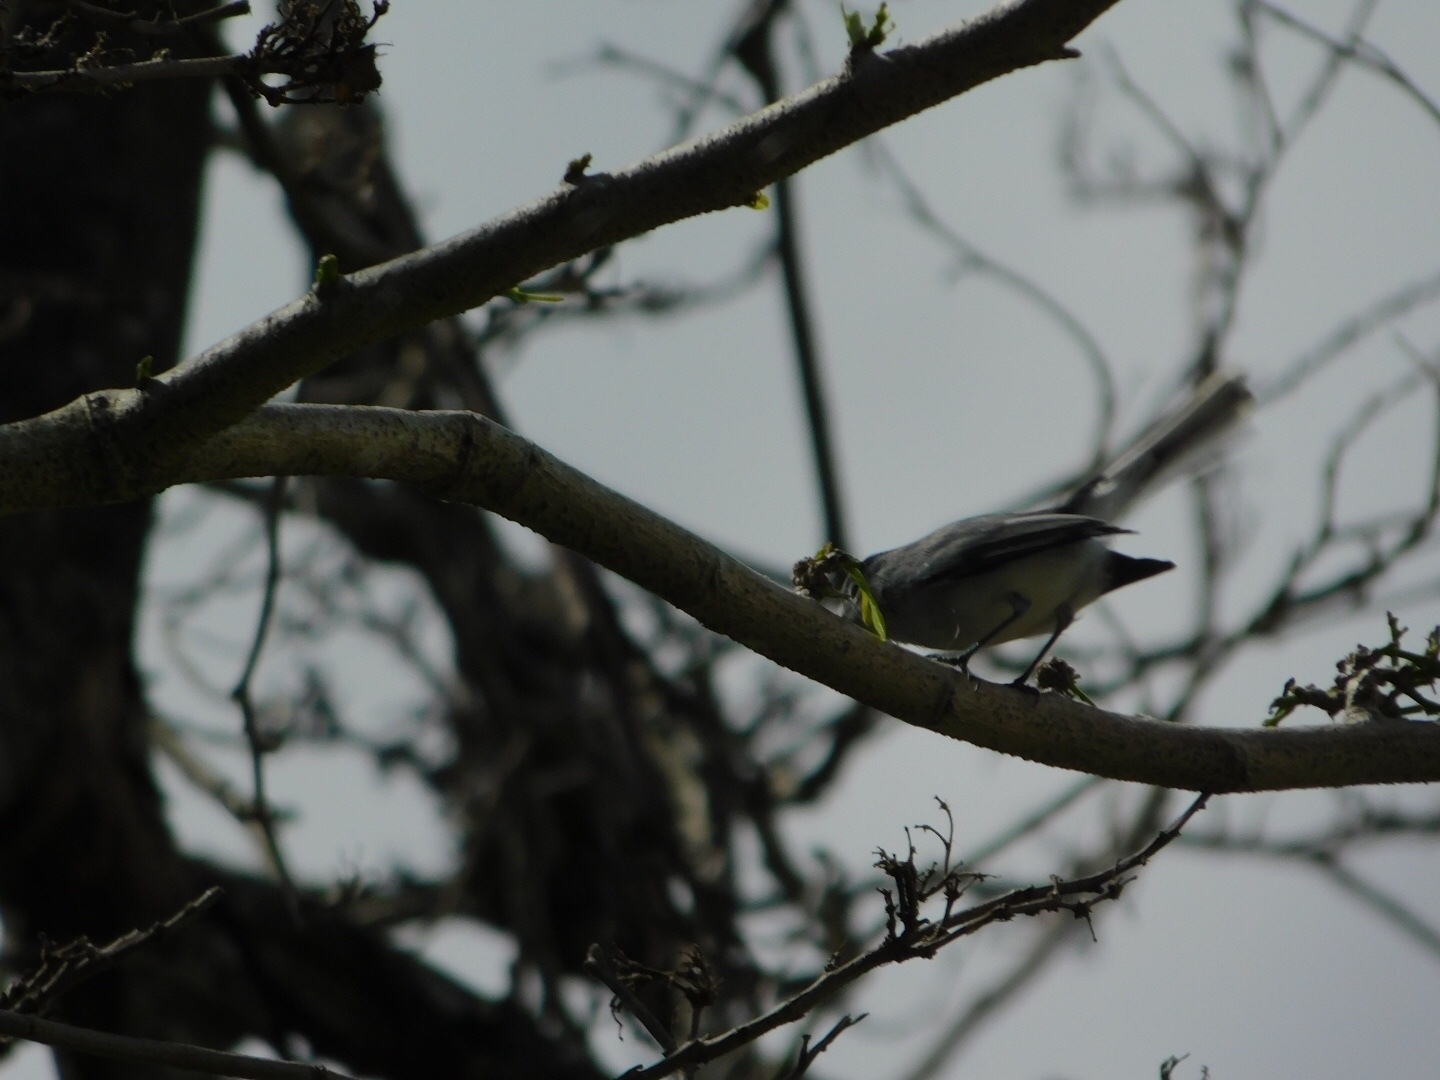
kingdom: Animalia
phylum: Chordata
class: Aves
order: Passeriformes
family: Polioptilidae
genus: Polioptila
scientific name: Polioptila caerulea
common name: Blue-gray gnatcatcher
